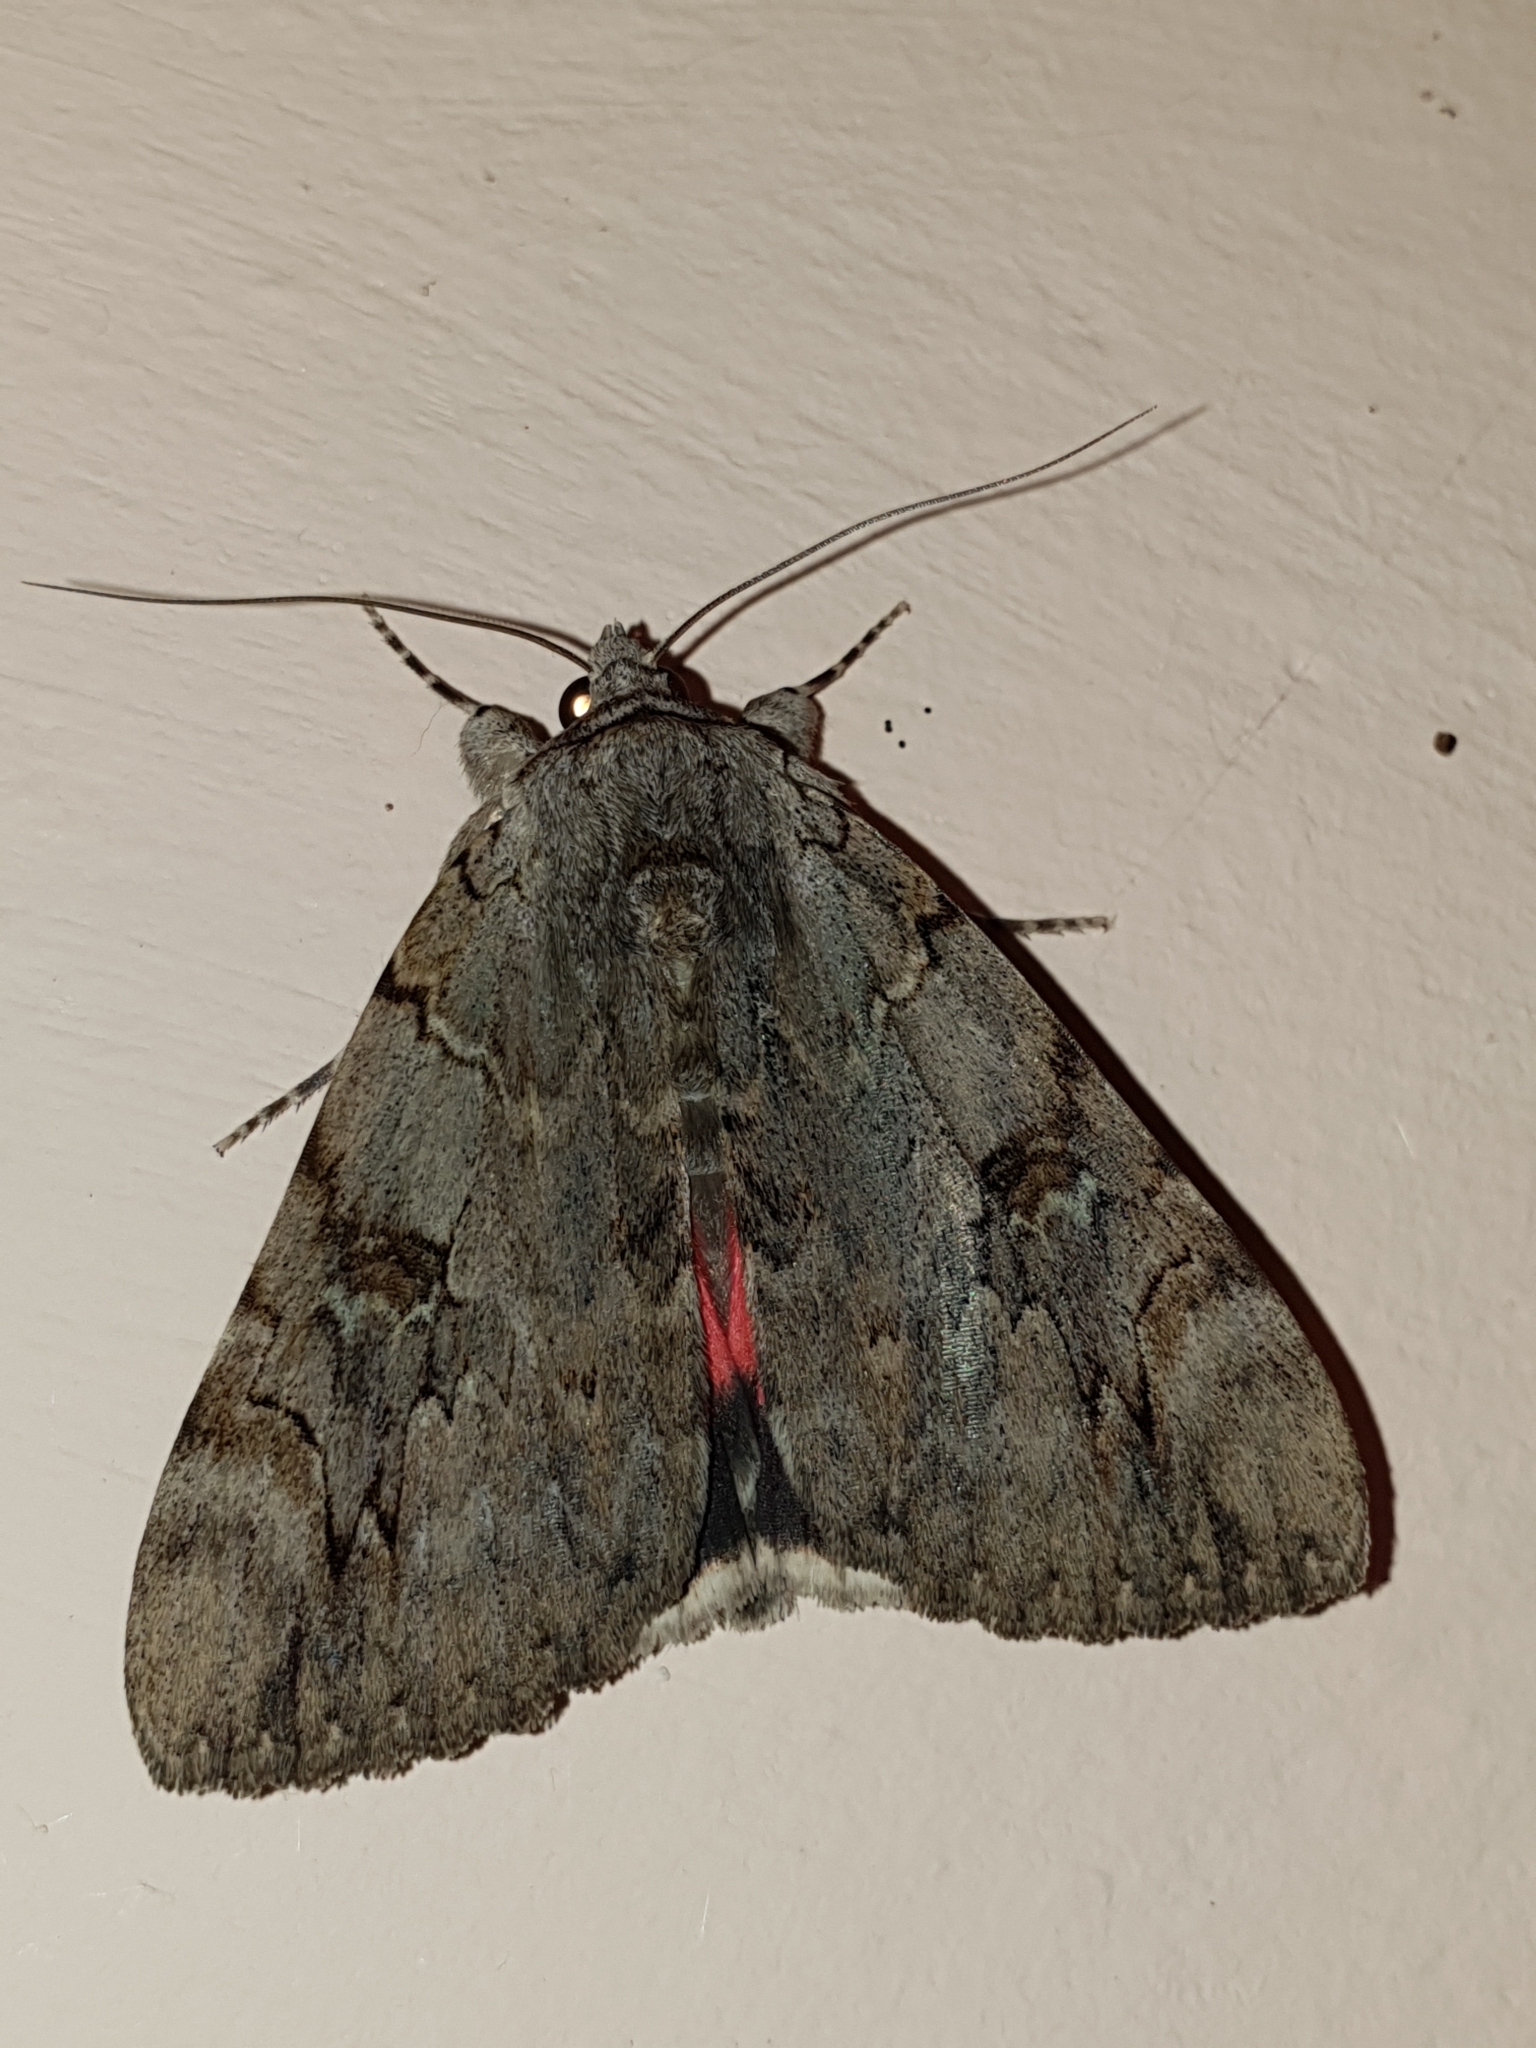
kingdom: Animalia
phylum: Arthropoda
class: Insecta
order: Lepidoptera
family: Erebidae
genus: Catocala
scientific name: Catocala electa
